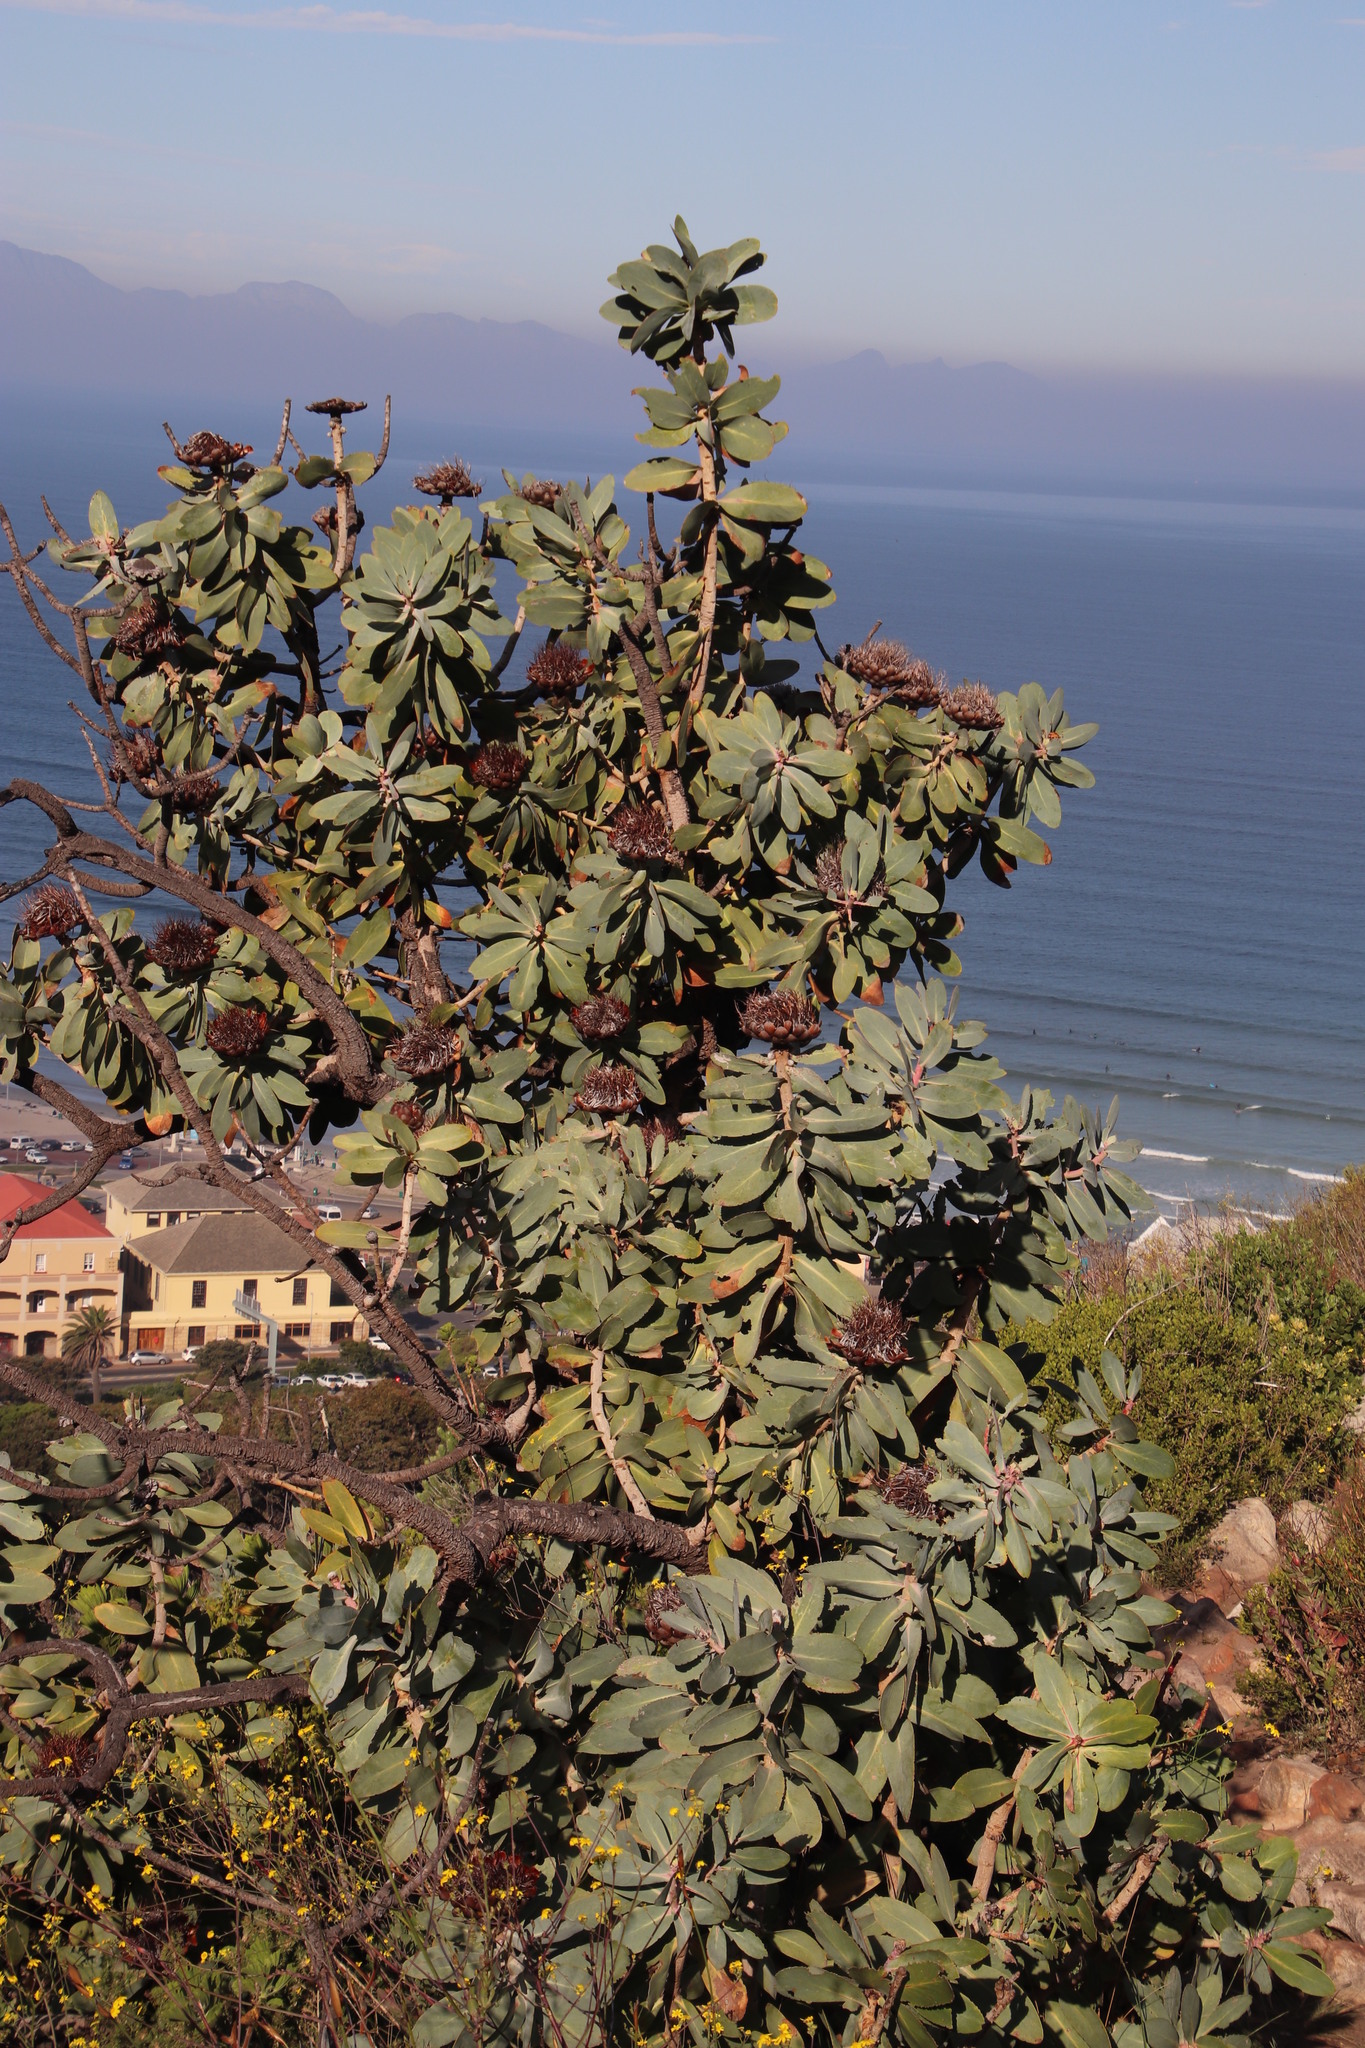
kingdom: Plantae
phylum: Tracheophyta
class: Magnoliopsida
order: Proteales
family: Proteaceae
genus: Protea
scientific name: Protea nitida
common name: Tree protea
